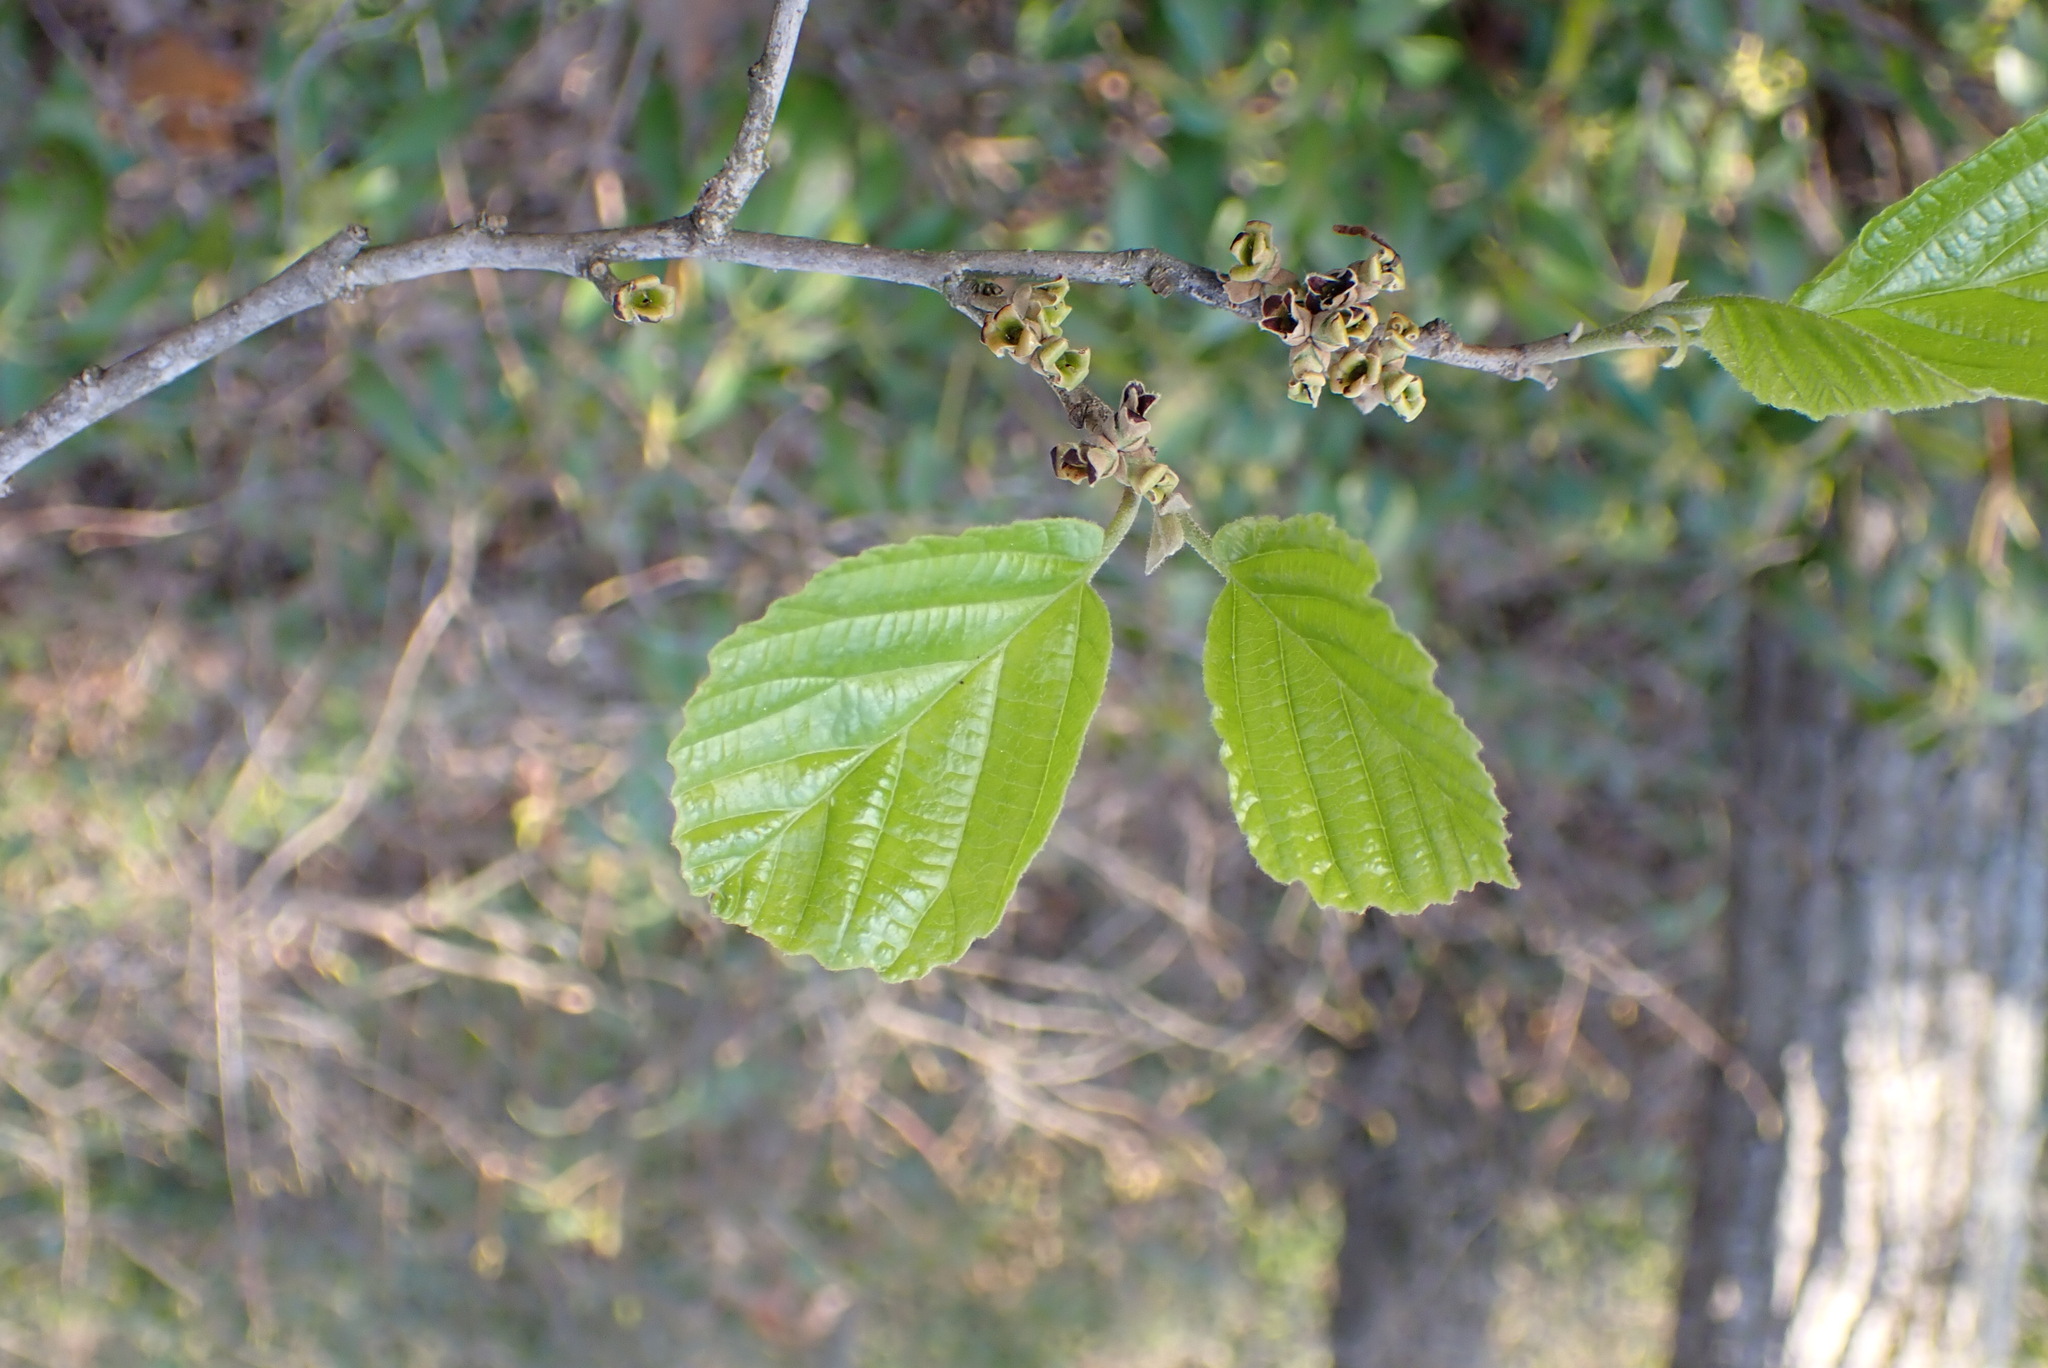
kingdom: Plantae
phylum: Tracheophyta
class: Magnoliopsida
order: Saxifragales
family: Hamamelidaceae
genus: Hamamelis
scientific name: Hamamelis virginiana
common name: Witch-hazel
